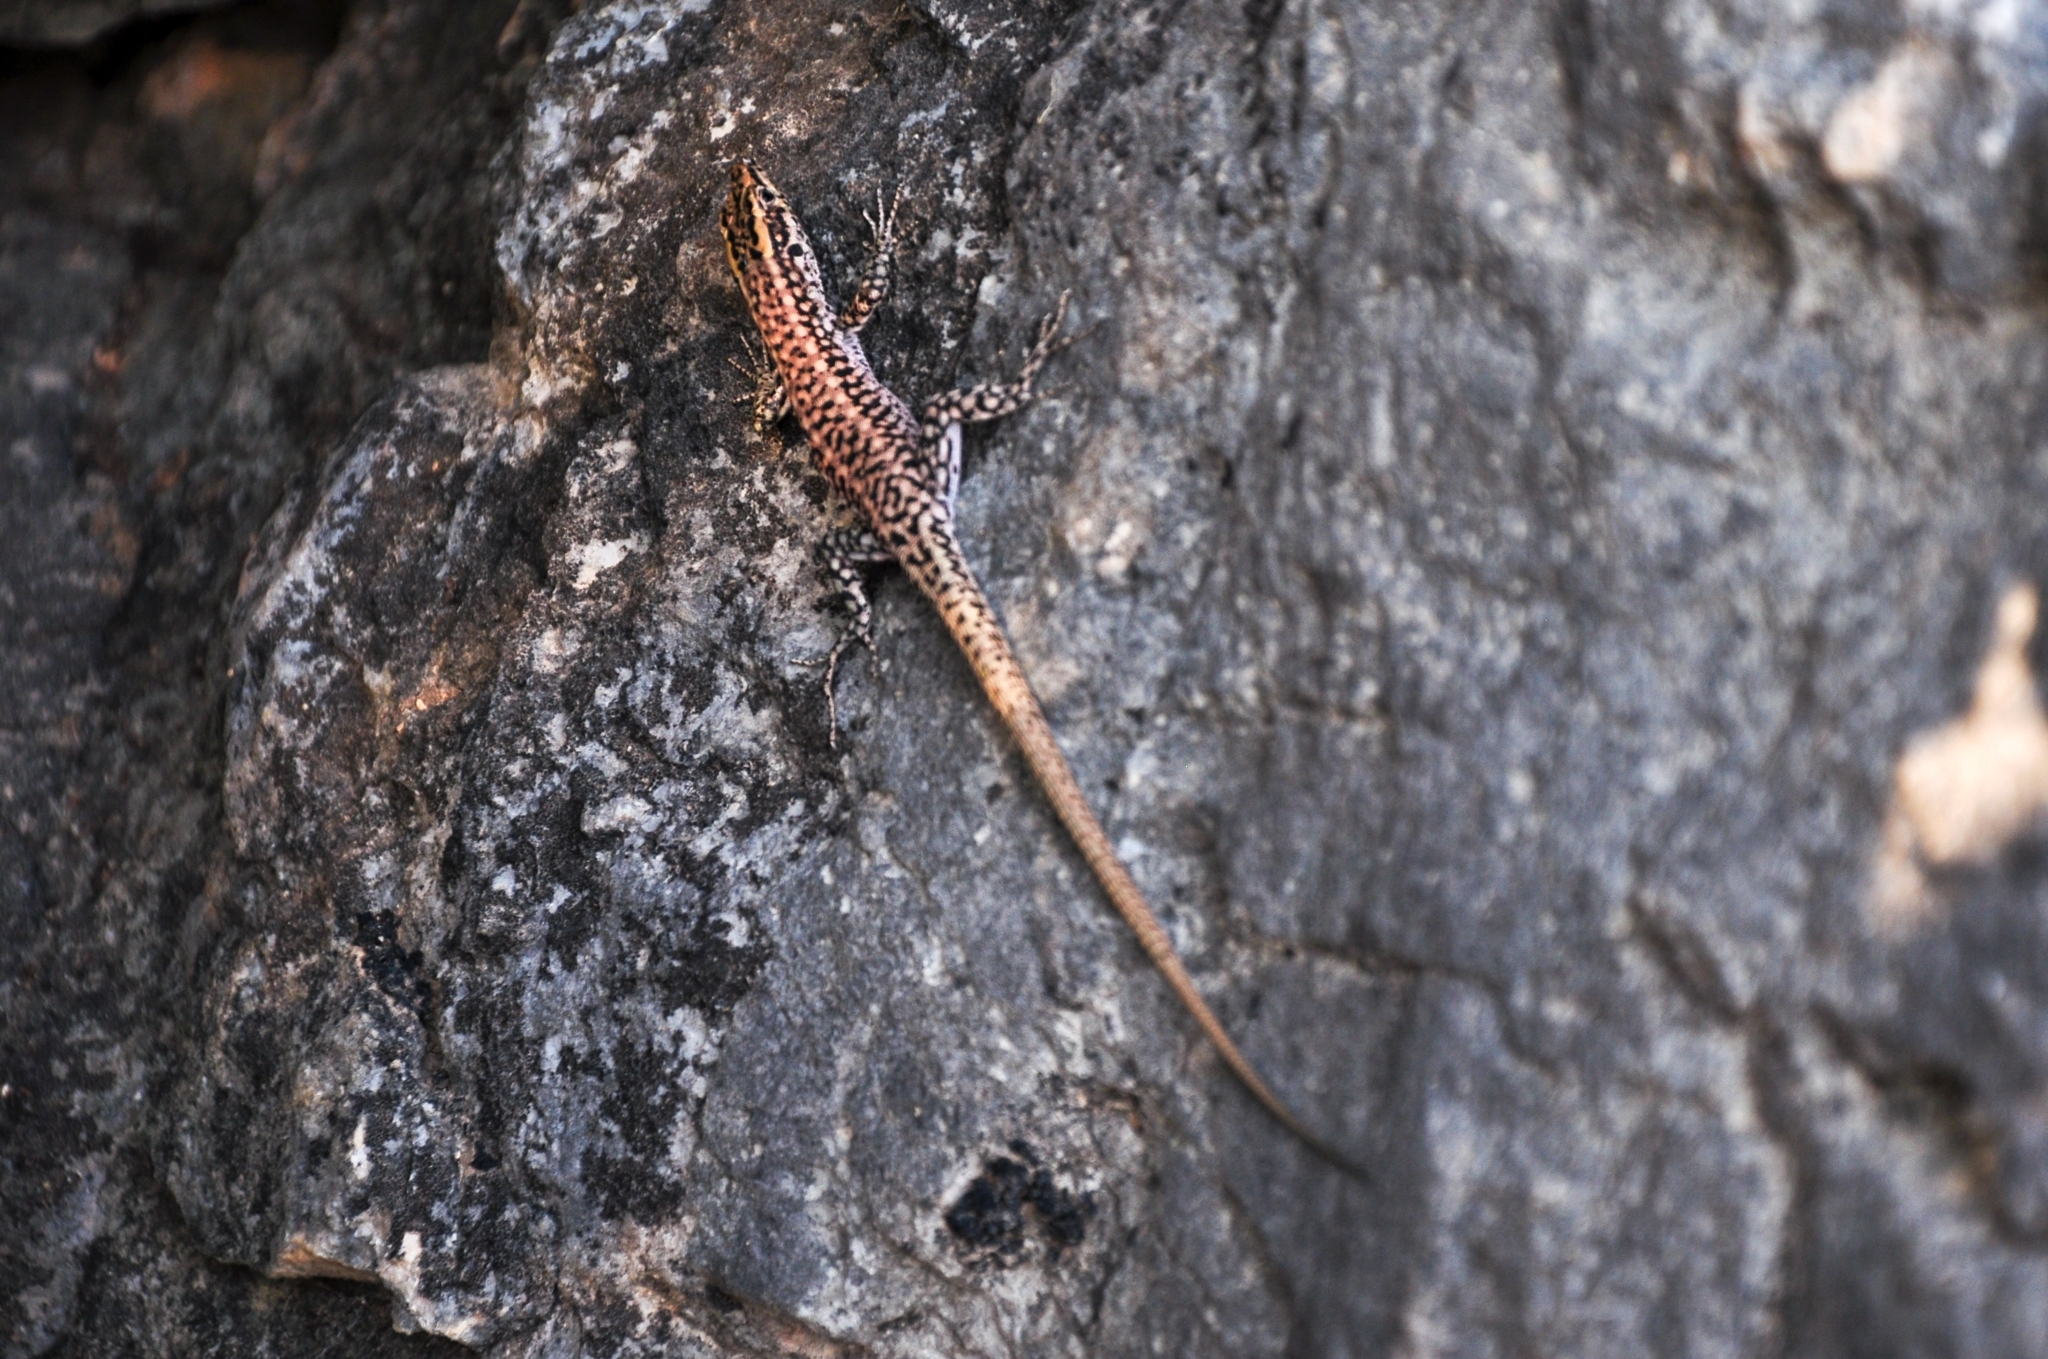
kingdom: Animalia
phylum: Chordata
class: Squamata
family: Lacertidae
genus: Anatololacerta
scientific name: Anatololacerta
